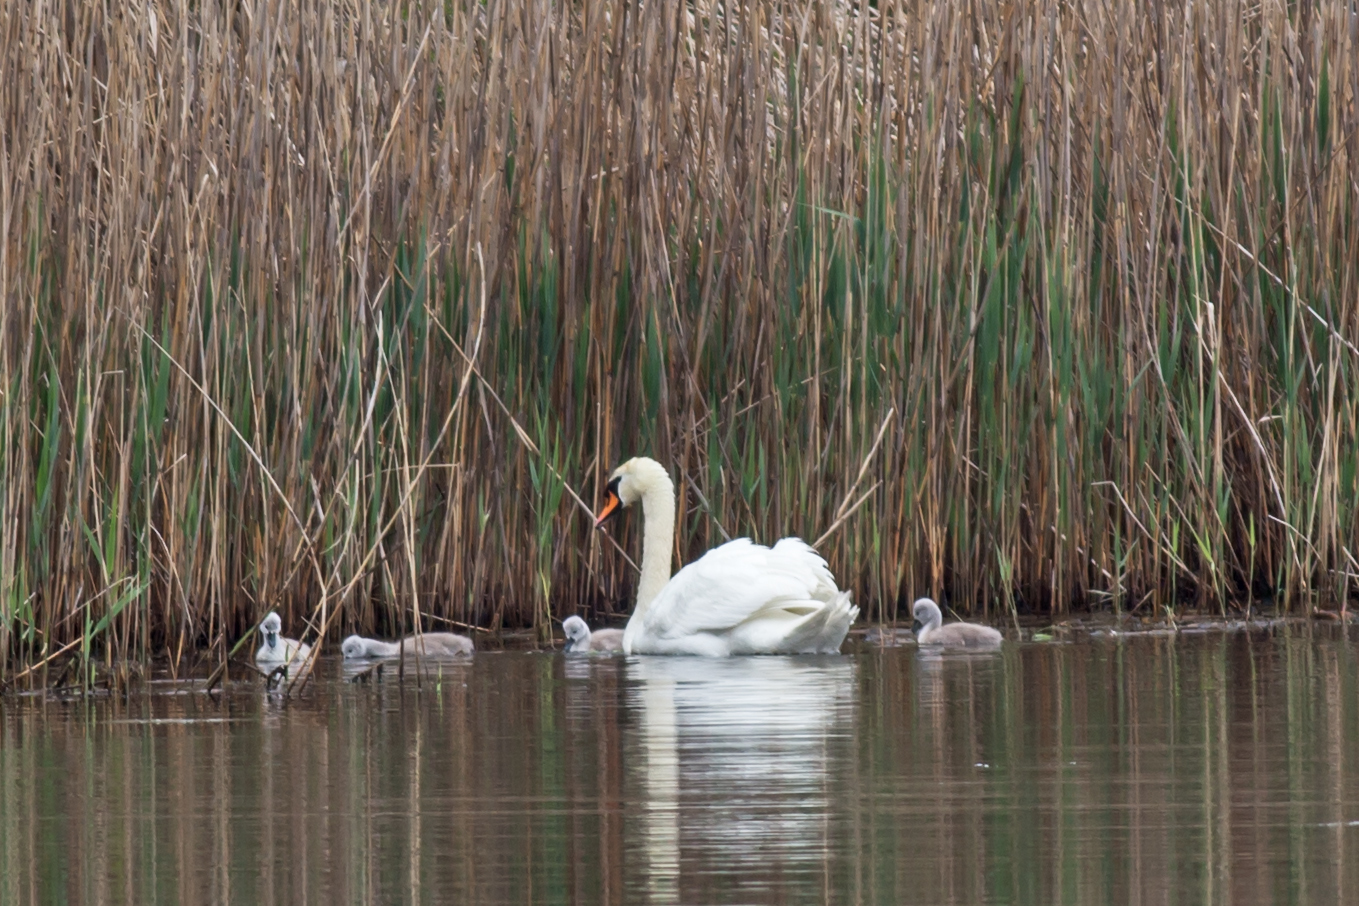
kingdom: Animalia
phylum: Chordata
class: Aves
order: Anseriformes
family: Anatidae
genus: Cygnus
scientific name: Cygnus olor
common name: Mute swan
